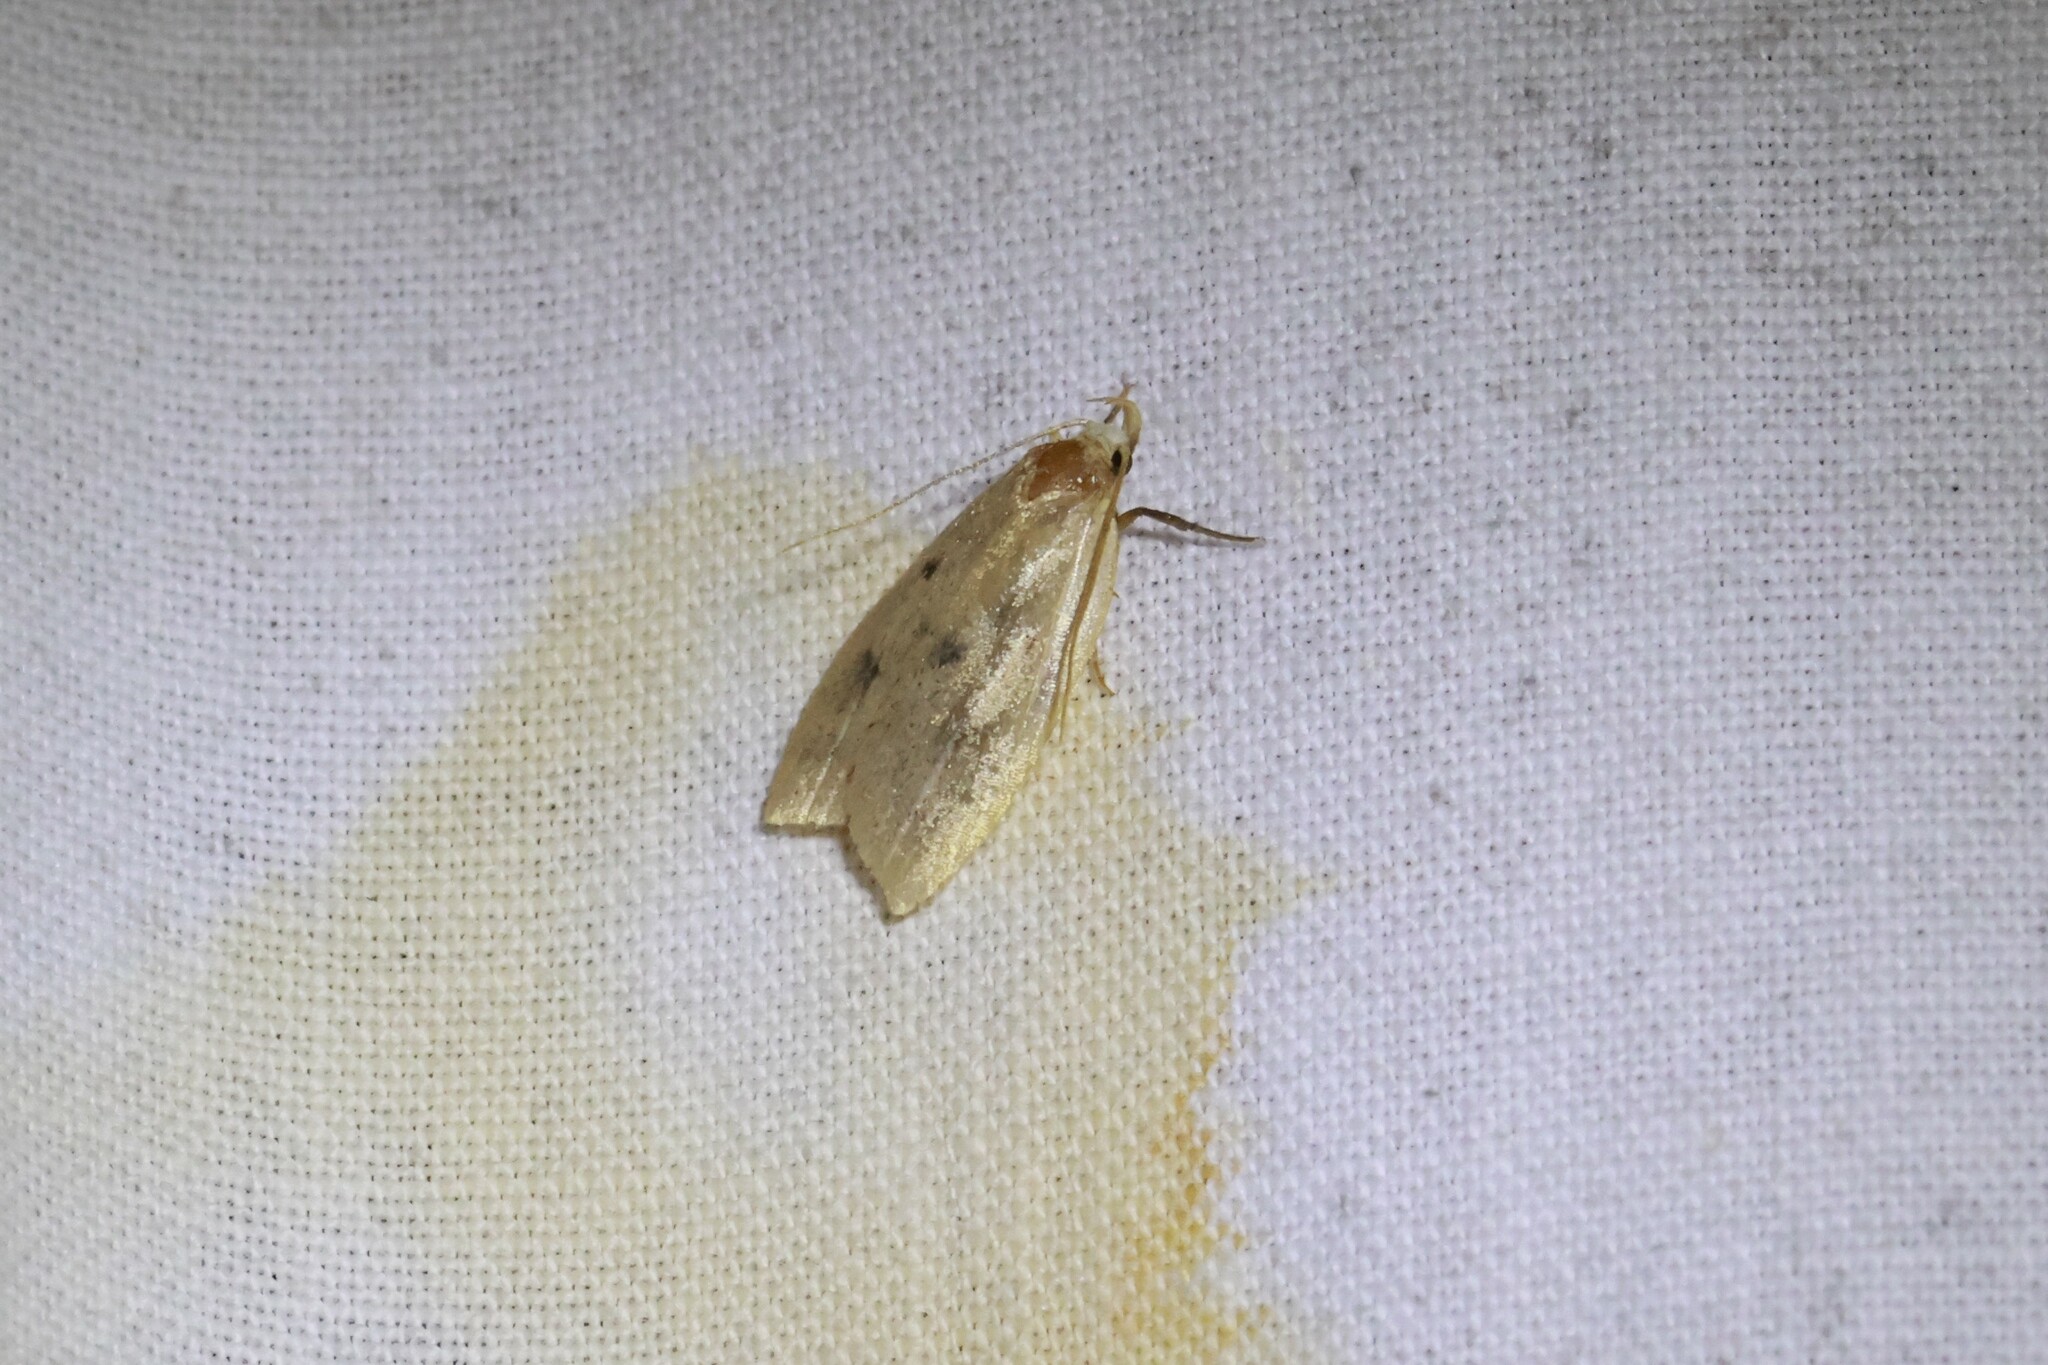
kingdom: Animalia
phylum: Arthropoda
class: Insecta
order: Lepidoptera
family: Peleopodidae
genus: Machimia
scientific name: Machimia tentoriferella
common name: Gold-striped leaftier moth
